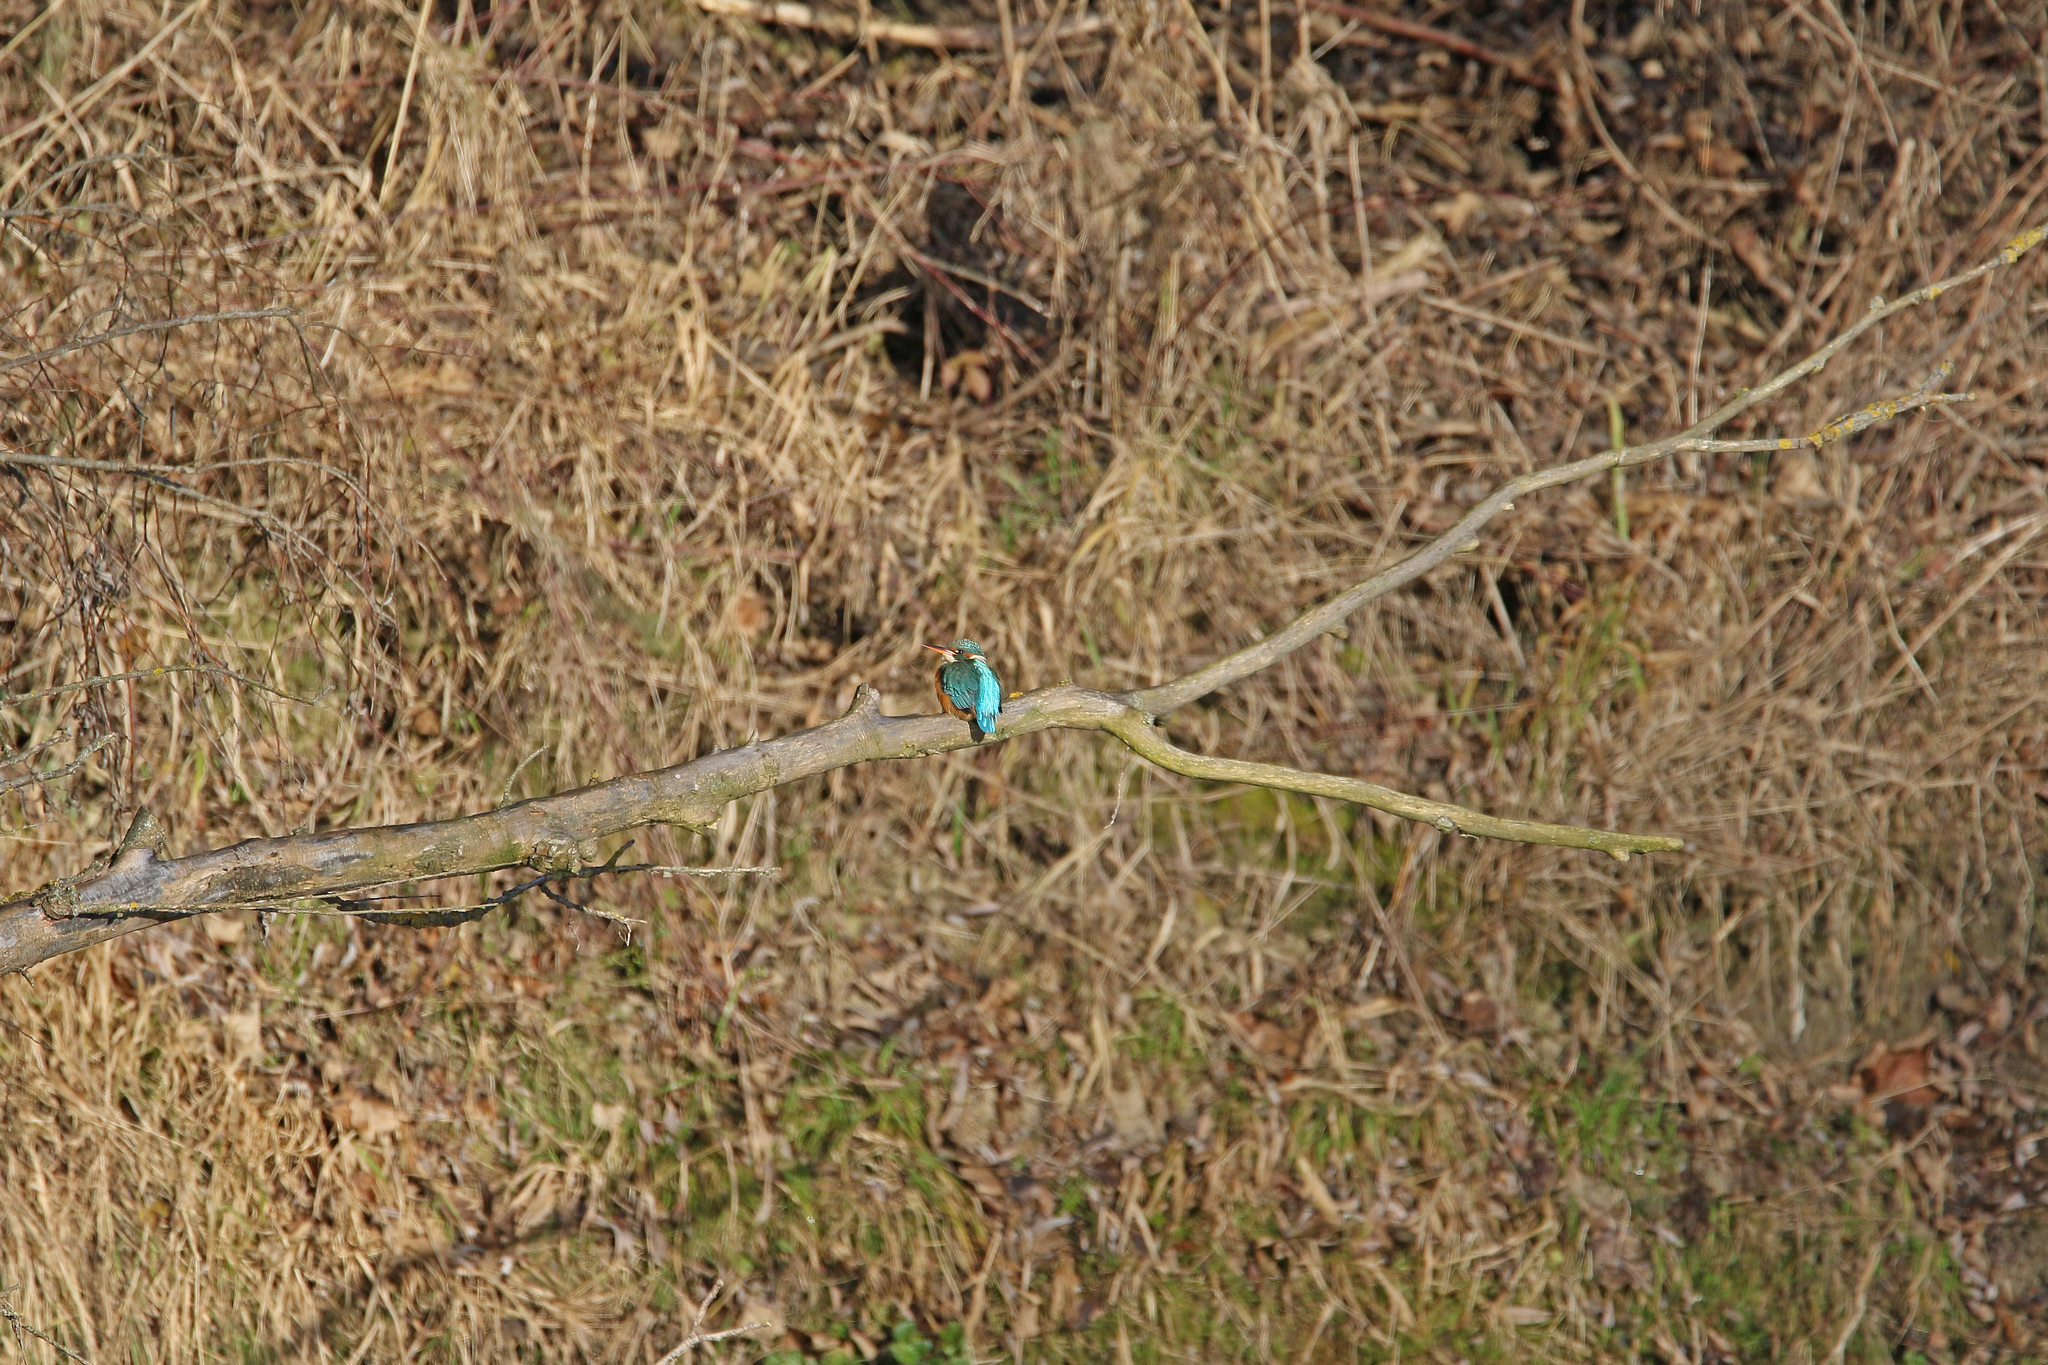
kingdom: Animalia
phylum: Chordata
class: Aves
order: Coraciiformes
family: Alcedinidae
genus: Alcedo
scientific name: Alcedo atthis
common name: Common kingfisher
